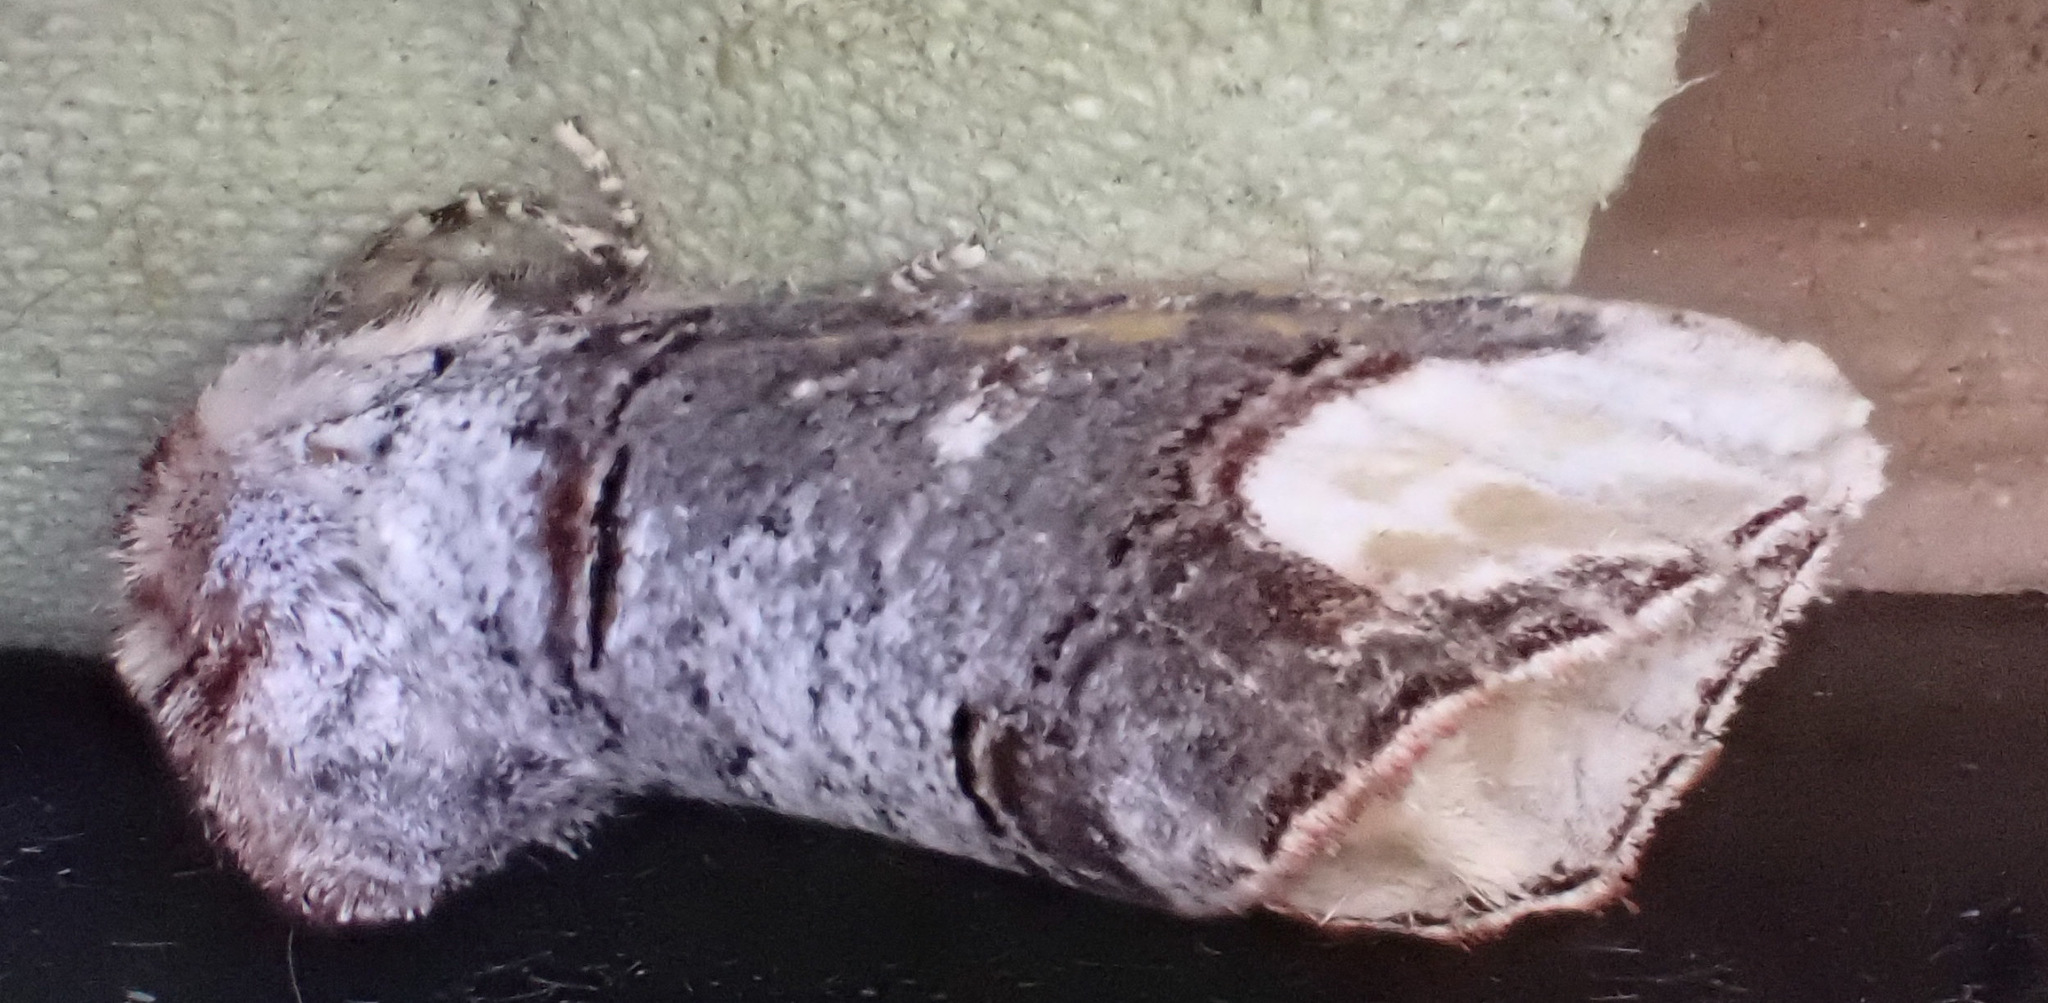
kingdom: Animalia
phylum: Arthropoda
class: Insecta
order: Lepidoptera
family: Notodontidae
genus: Phalera
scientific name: Phalera bucephala
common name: Buff-tip
